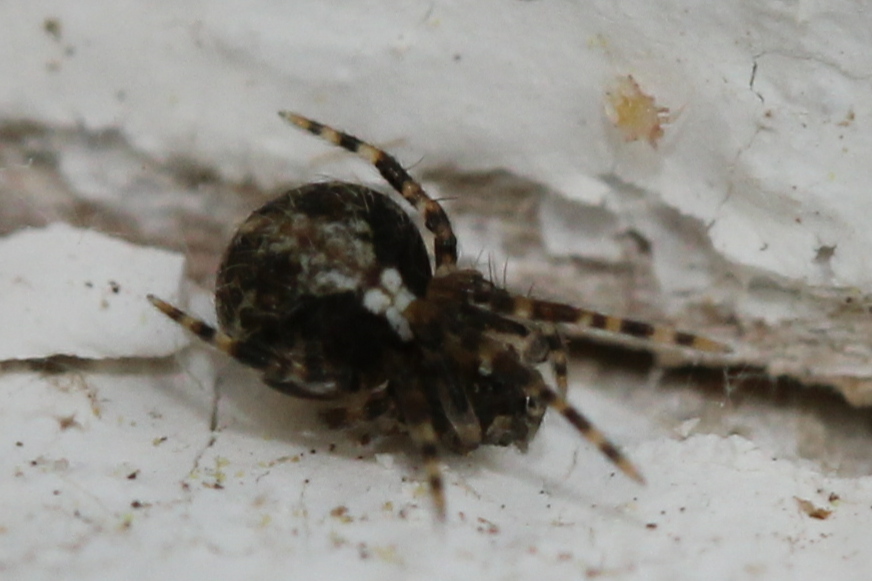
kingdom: Animalia
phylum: Arthropoda
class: Arachnida
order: Araneae
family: Theridiidae
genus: Yunohamella
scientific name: Yunohamella lyrica
